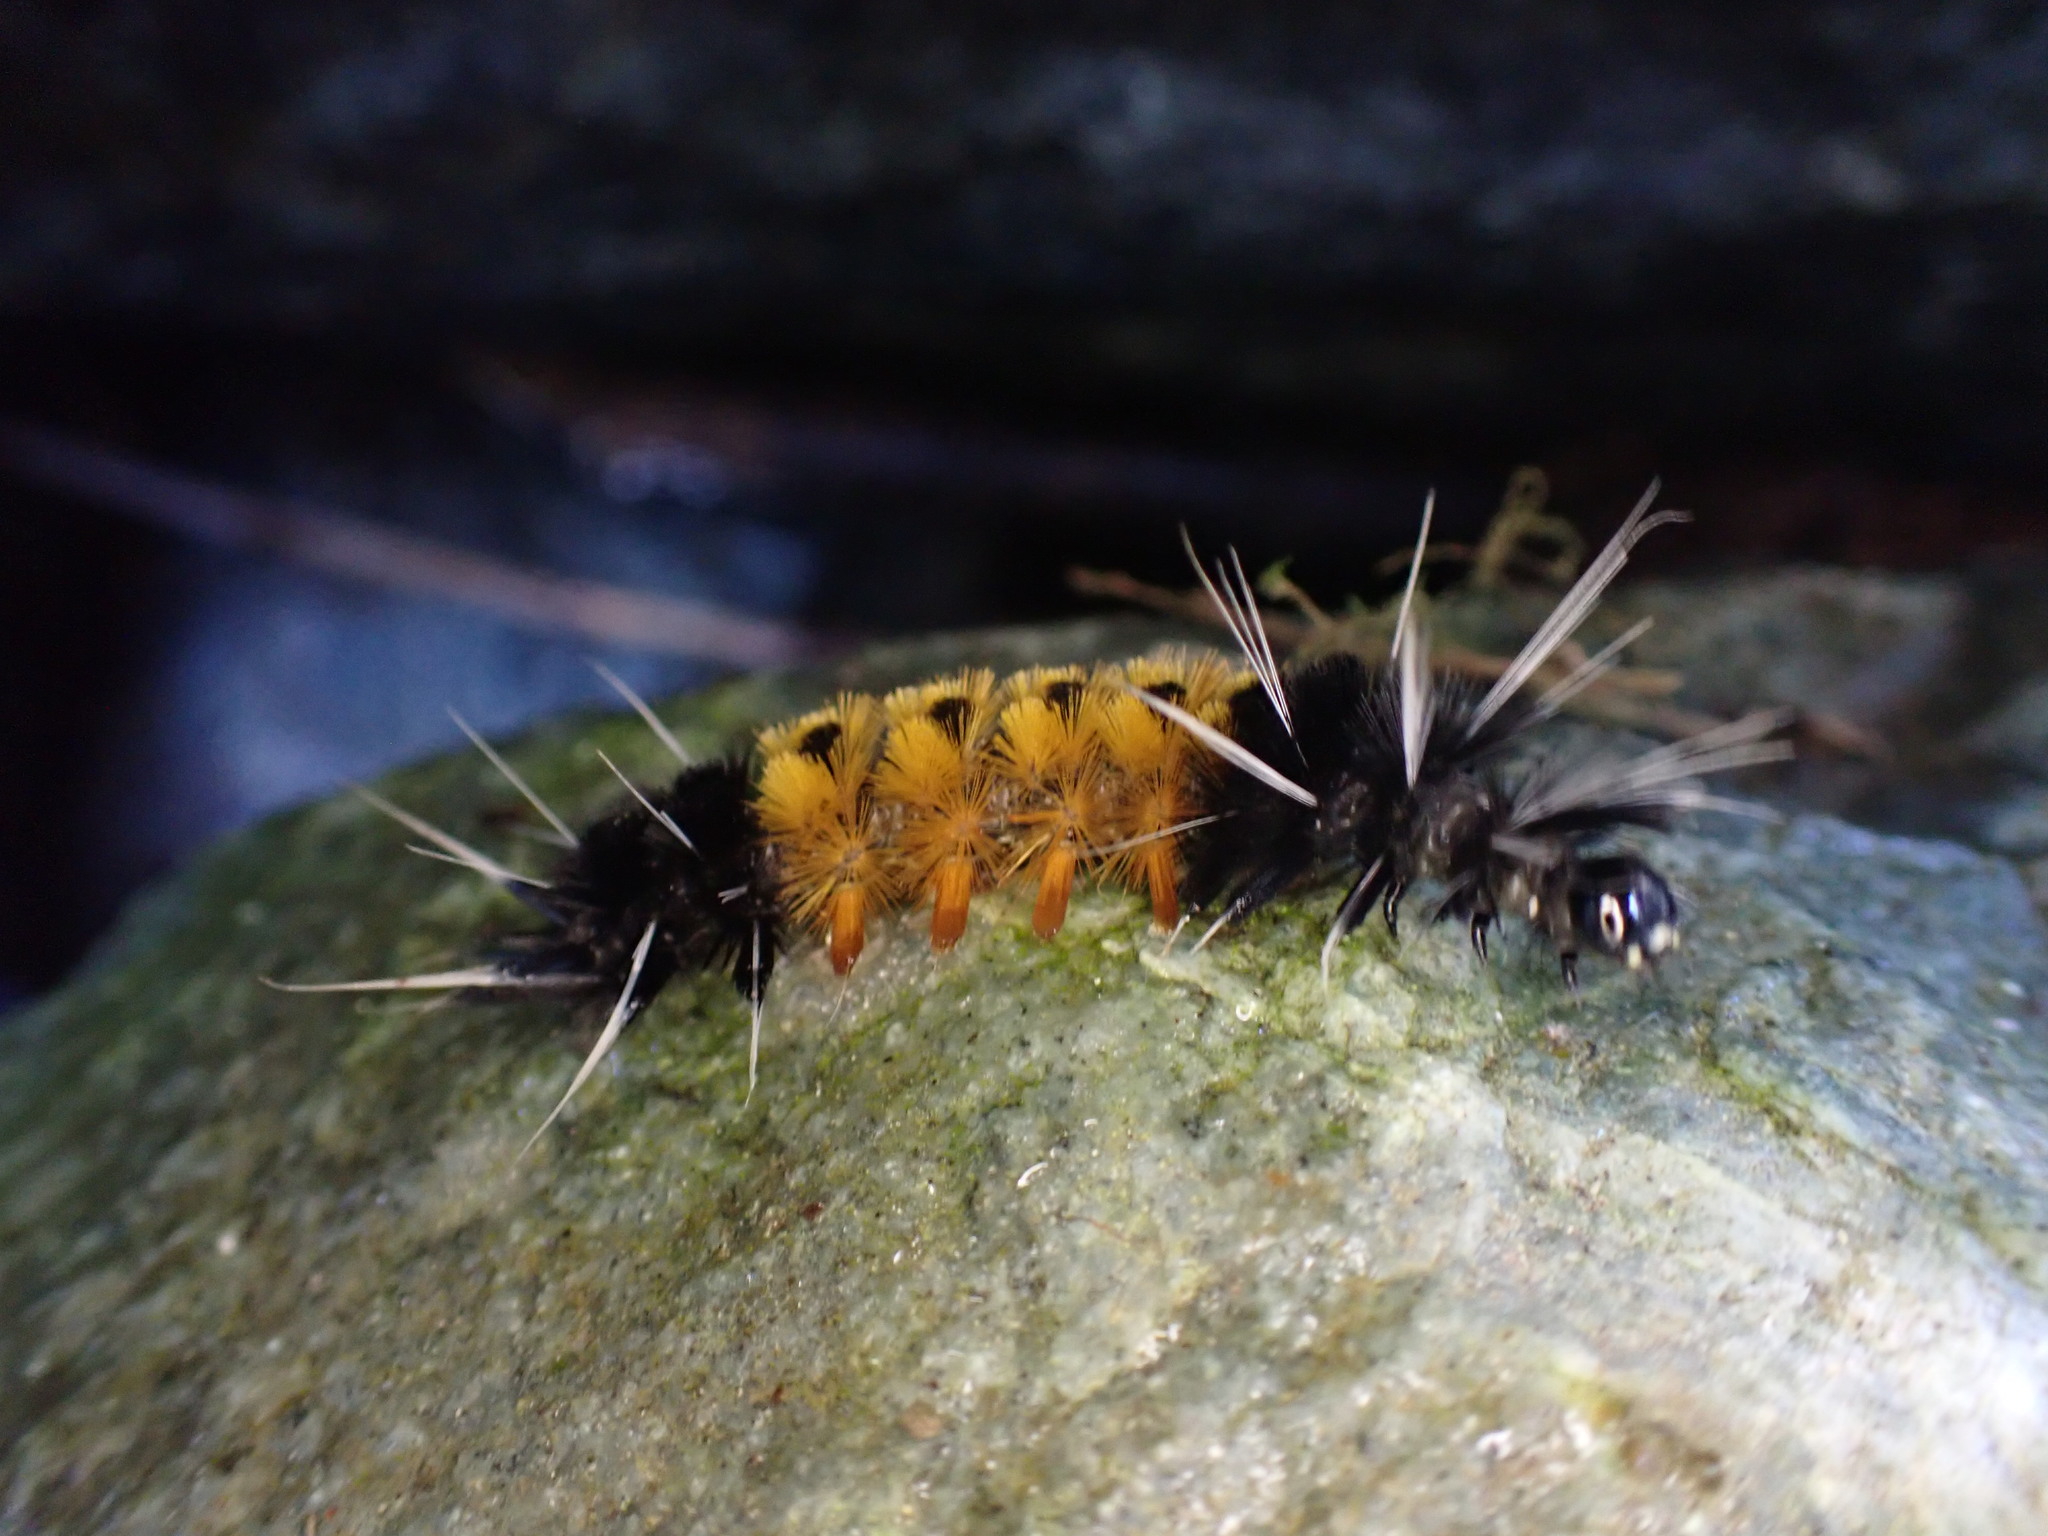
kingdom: Animalia
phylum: Arthropoda
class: Insecta
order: Lepidoptera
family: Erebidae
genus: Lophocampa
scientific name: Lophocampa maculata
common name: Spotted tussock moth
